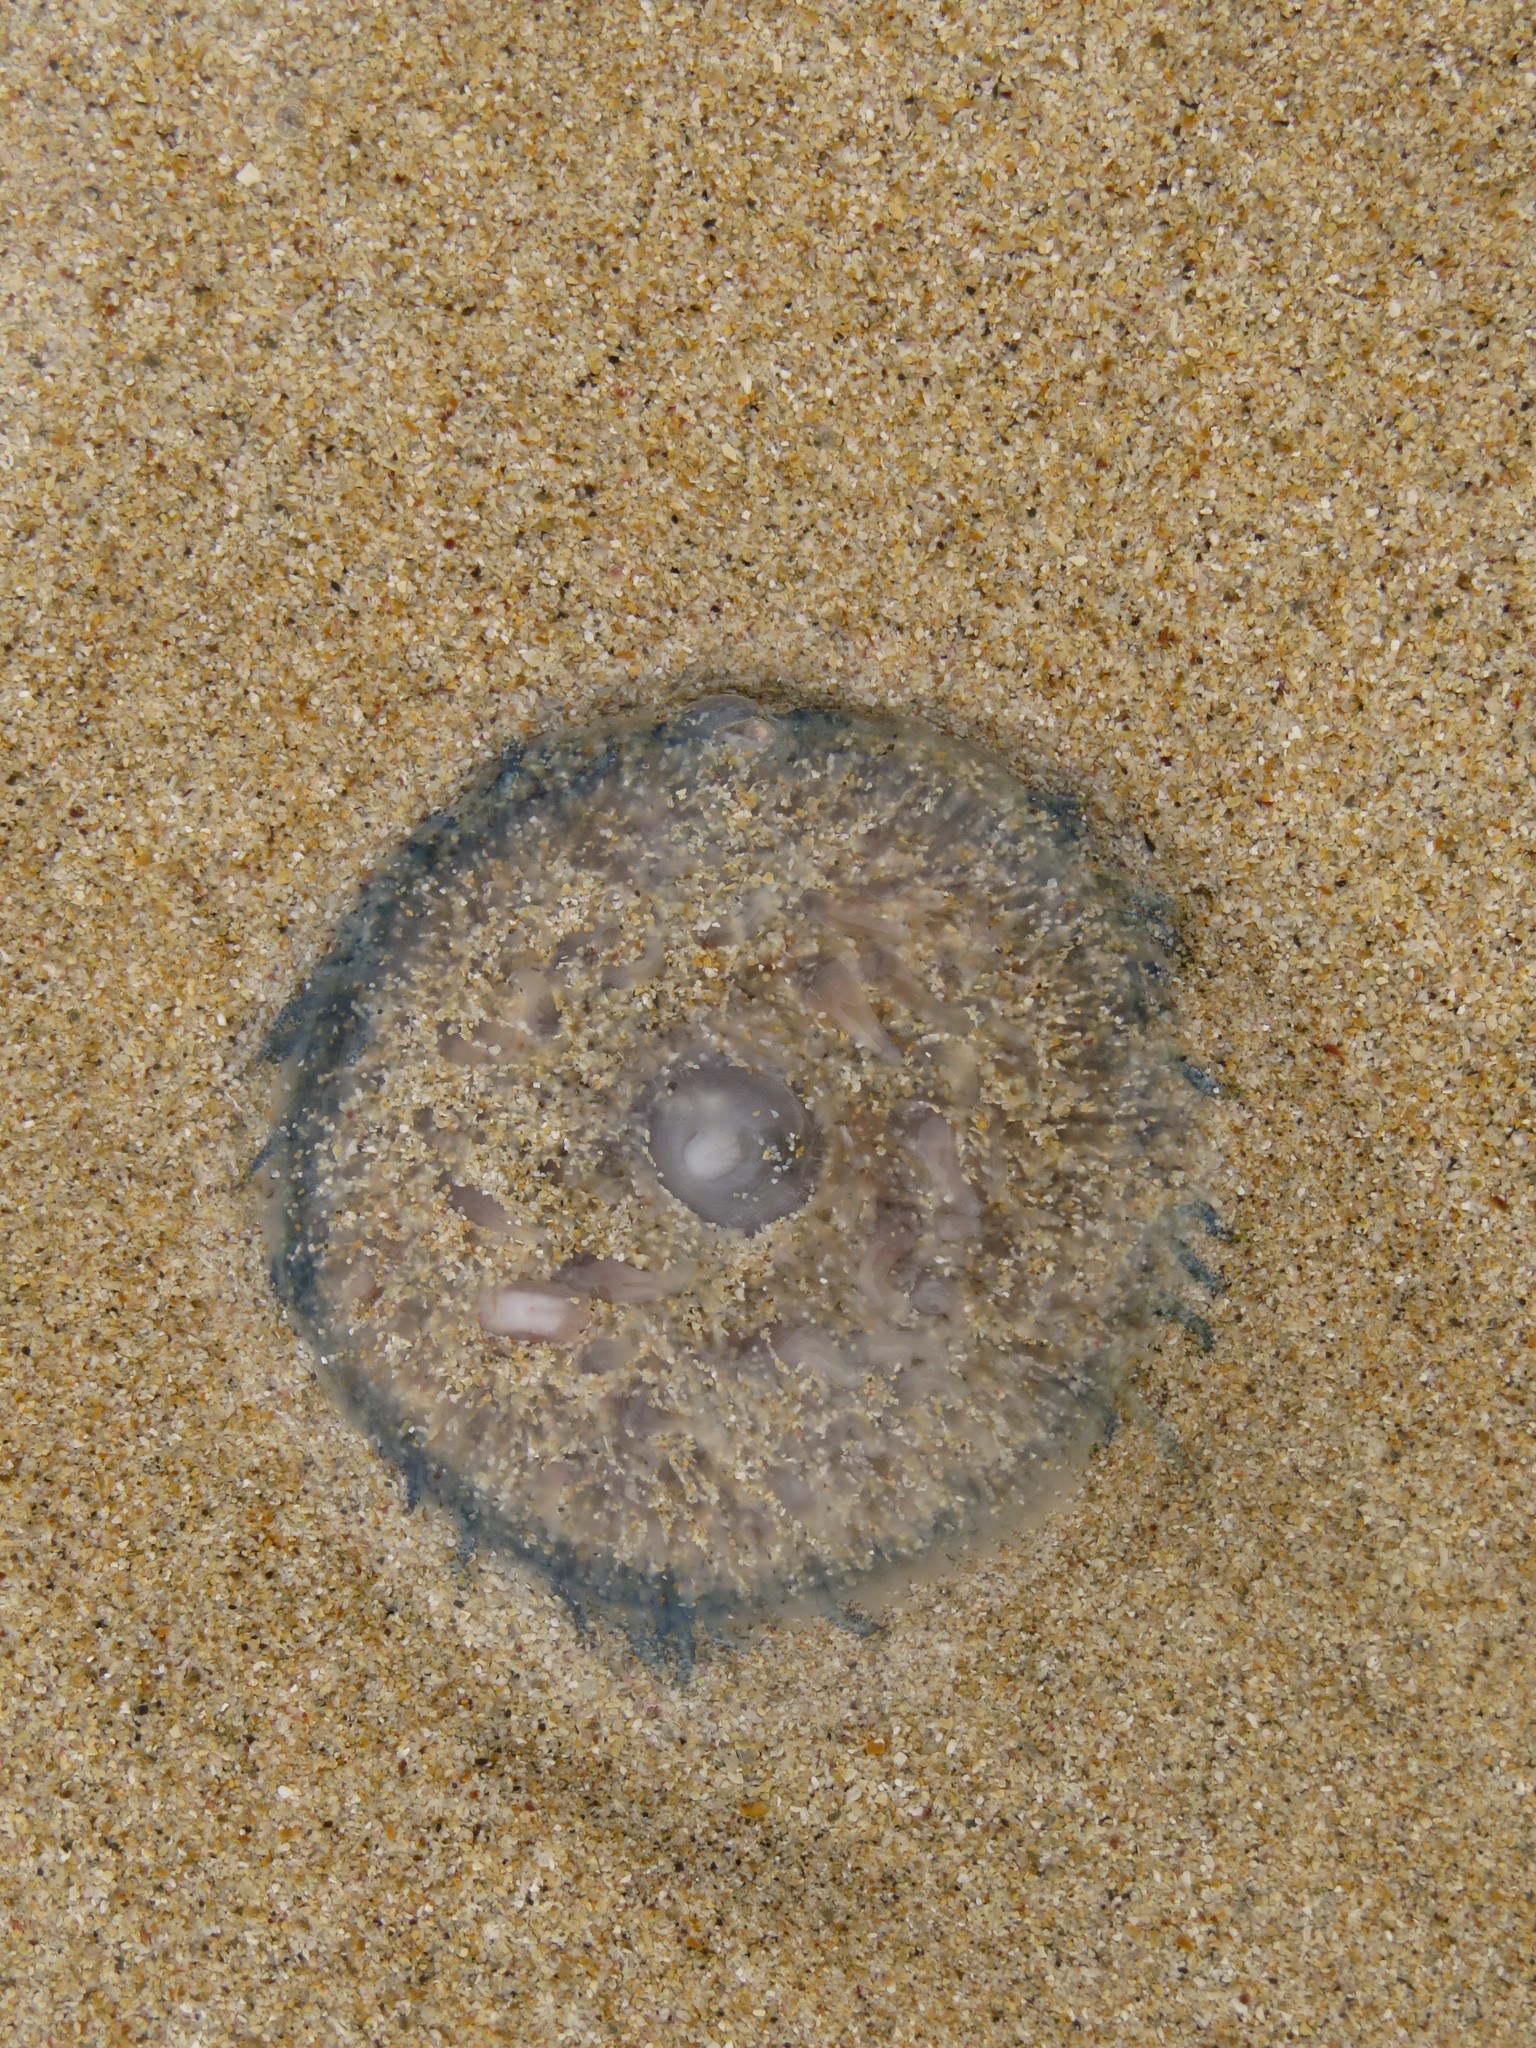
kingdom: Animalia
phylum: Cnidaria
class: Hydrozoa
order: Anthoathecata
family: Porpitidae
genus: Porpita
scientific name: Porpita porpita
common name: Blue button
